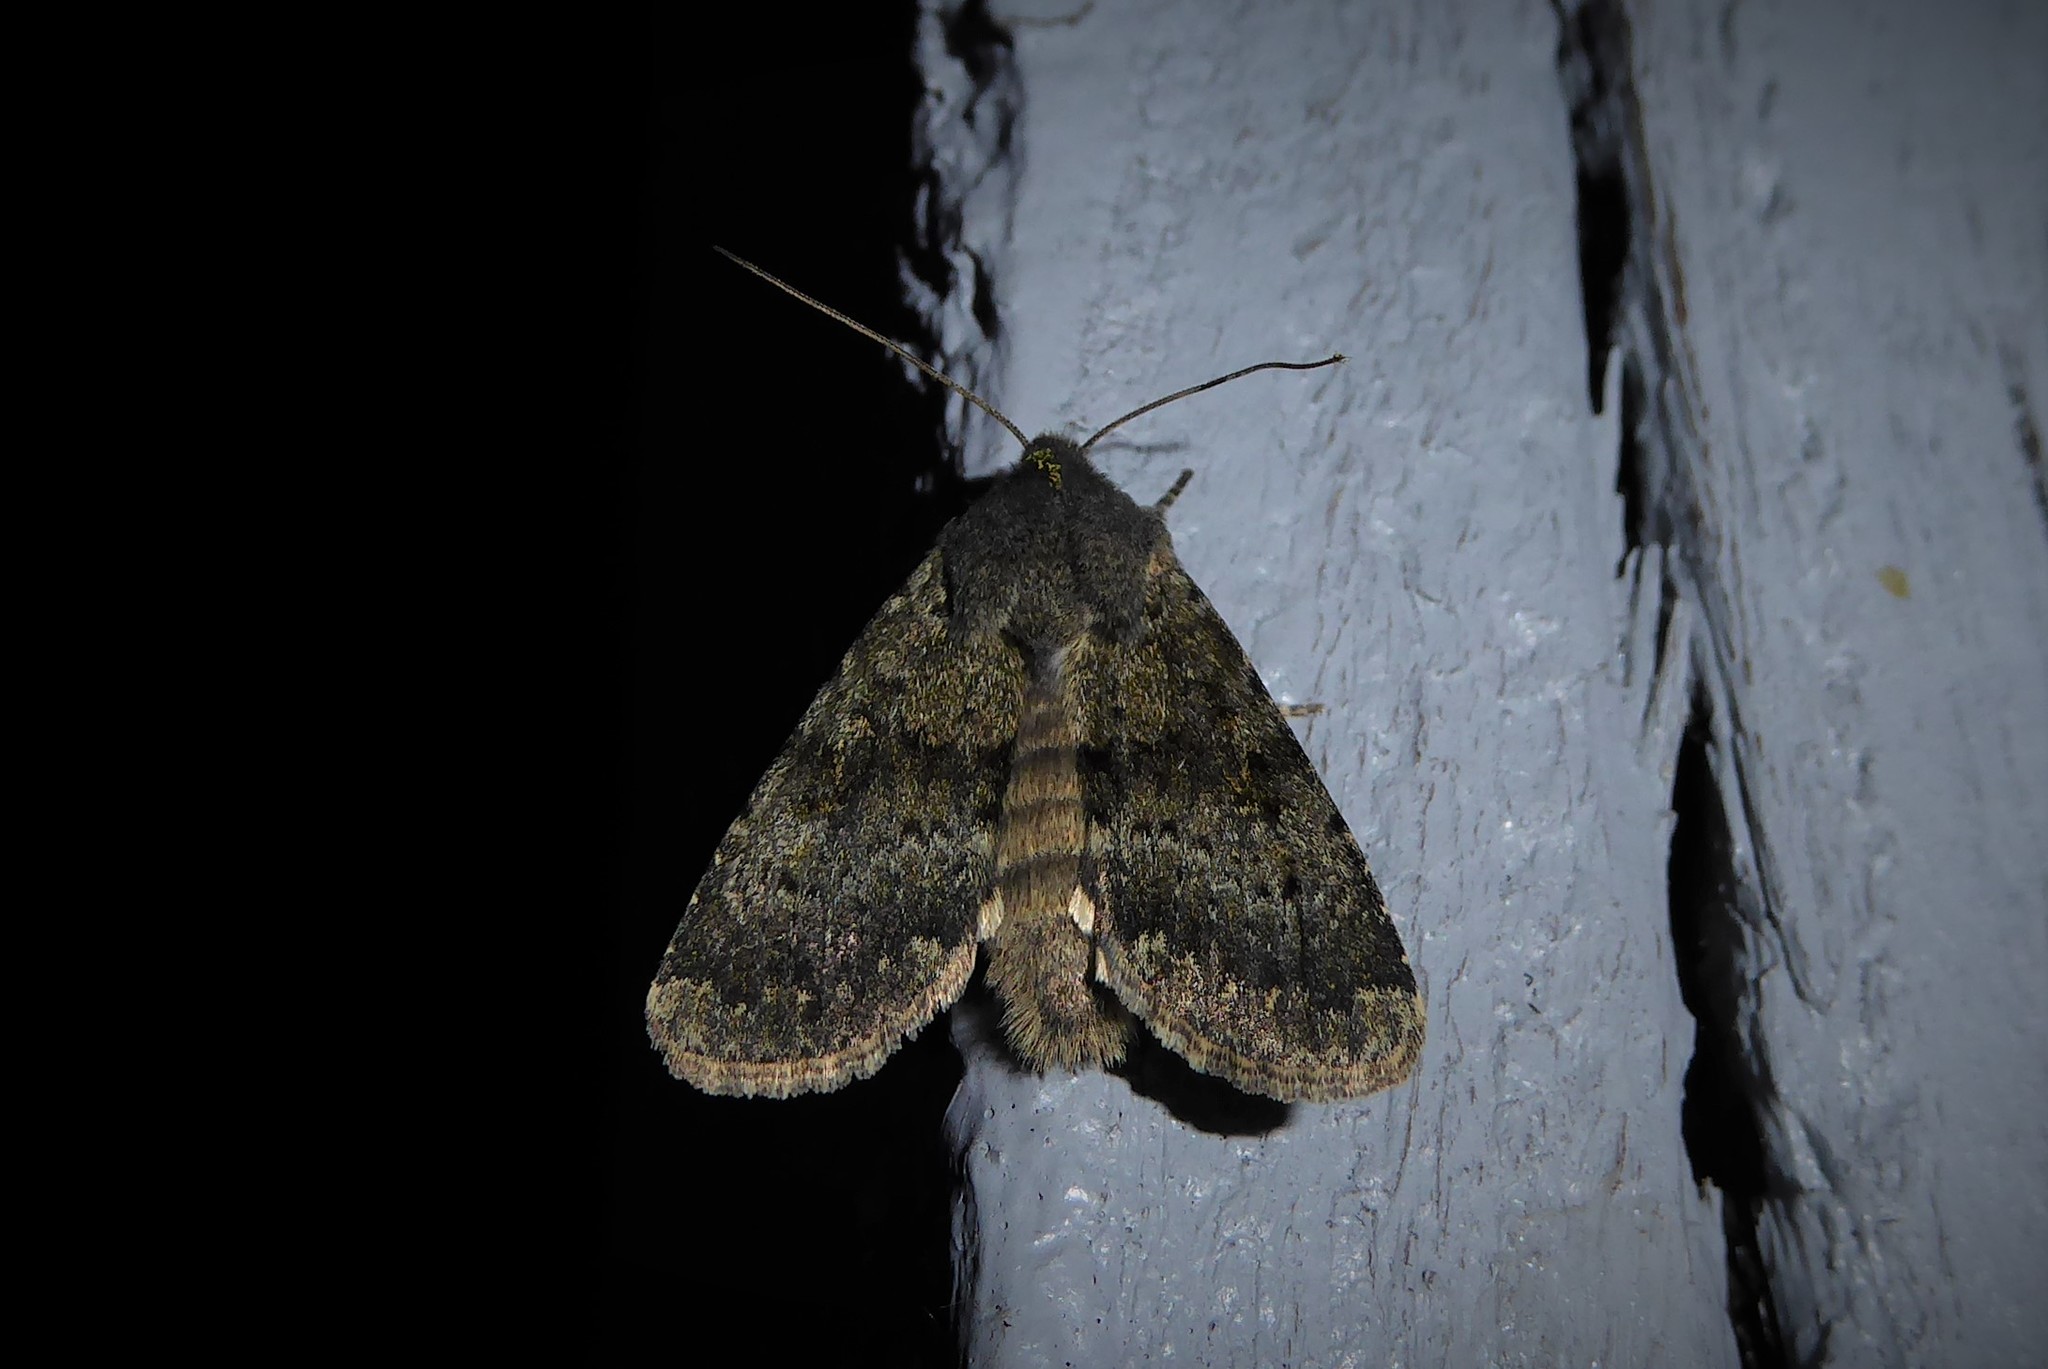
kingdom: Animalia
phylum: Arthropoda
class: Insecta
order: Lepidoptera
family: Noctuidae
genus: Ichneutica
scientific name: Ichneutica moderata
